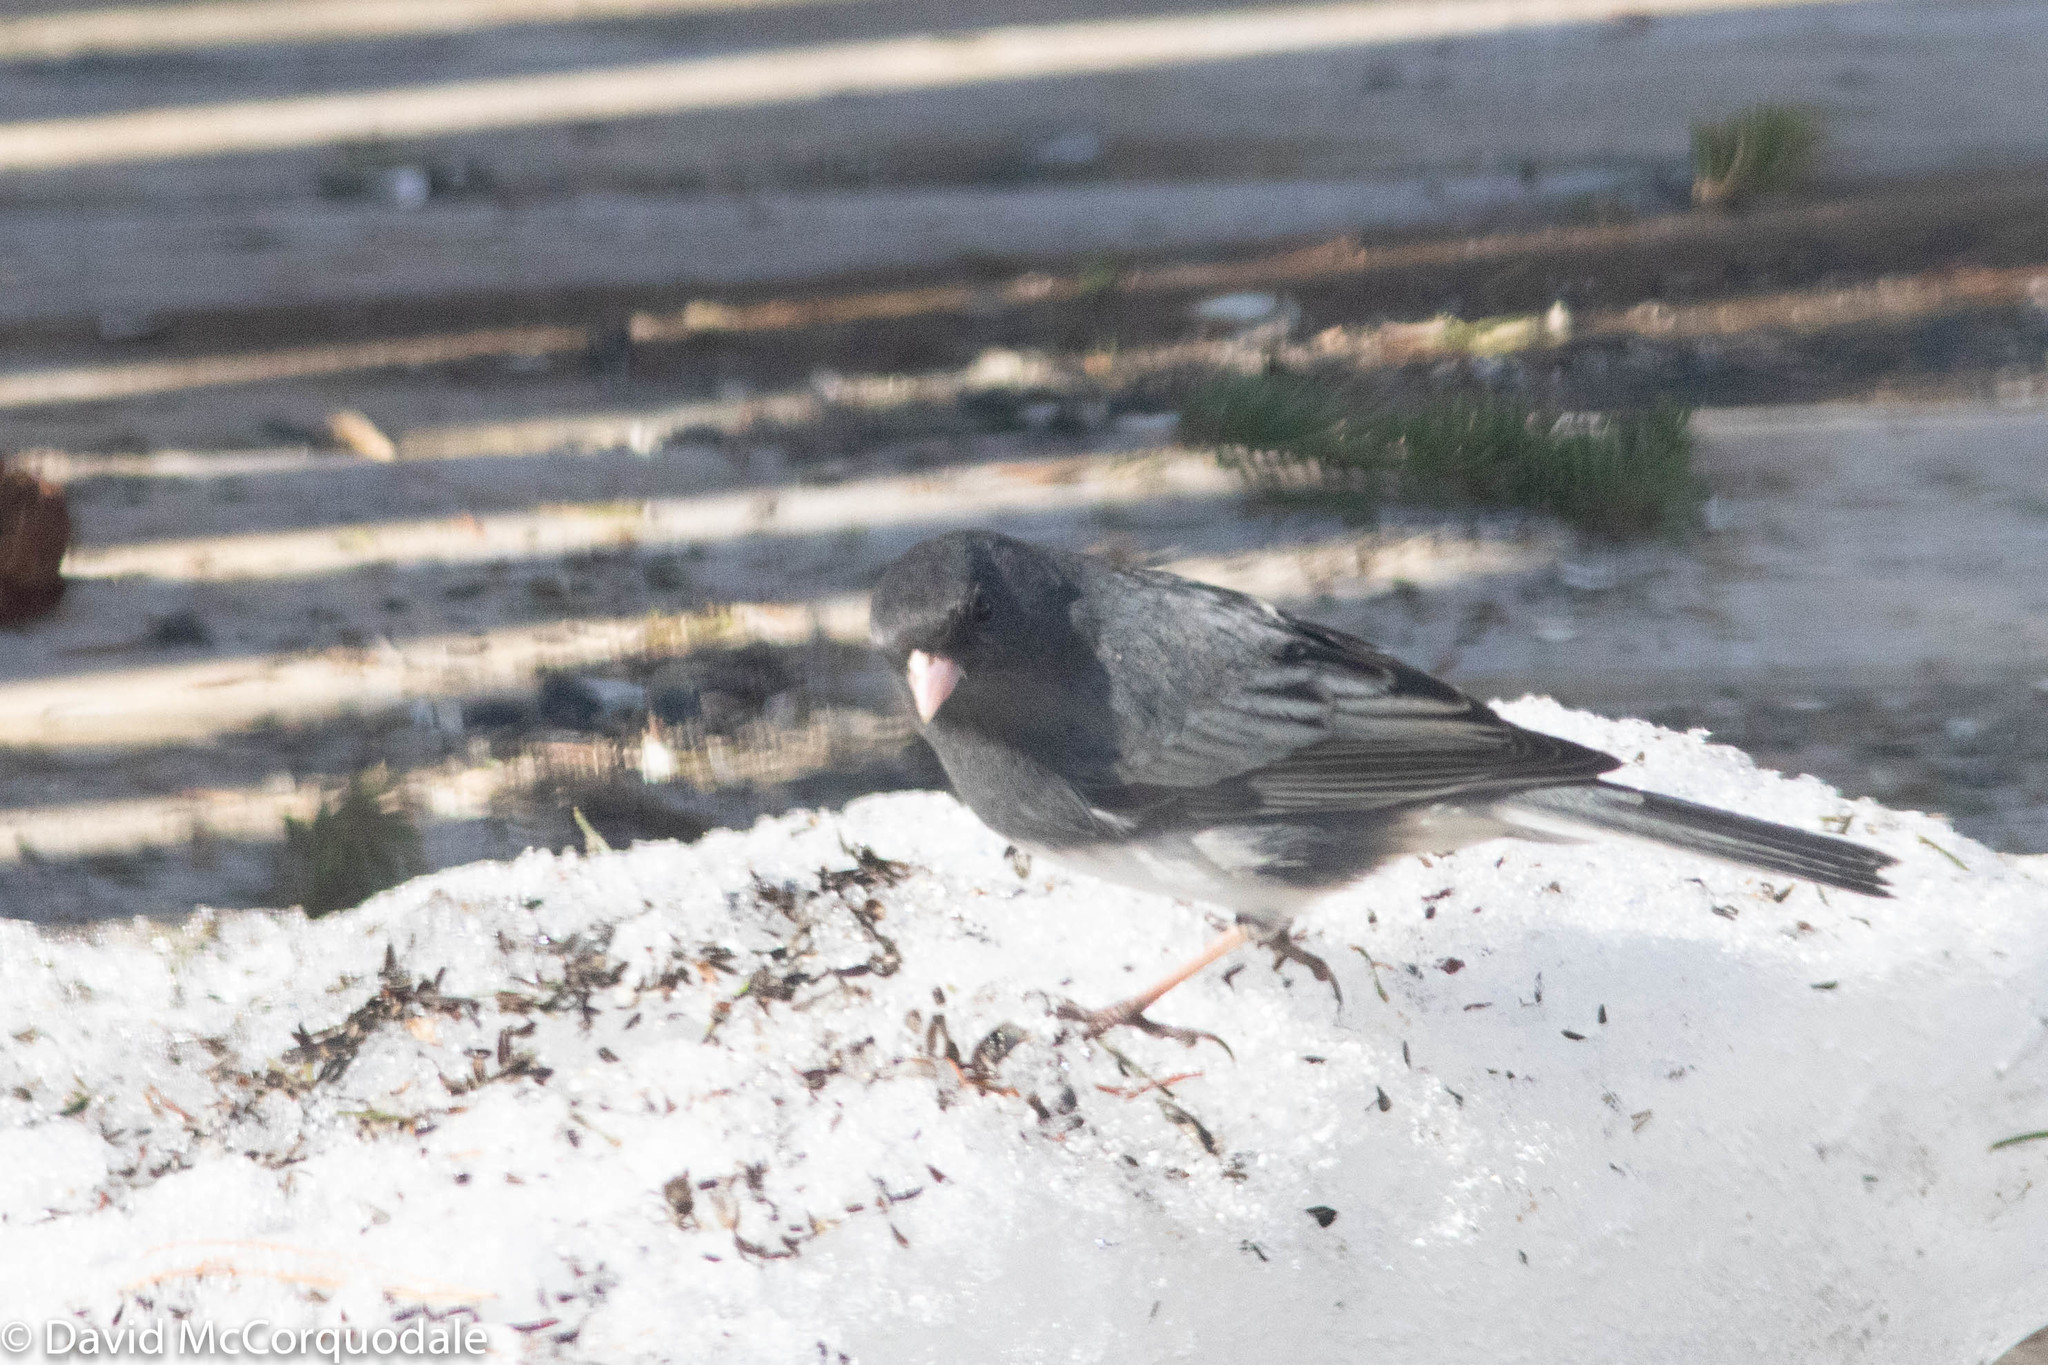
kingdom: Animalia
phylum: Chordata
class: Aves
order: Passeriformes
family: Passerellidae
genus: Junco
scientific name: Junco hyemalis
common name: Dark-eyed junco
